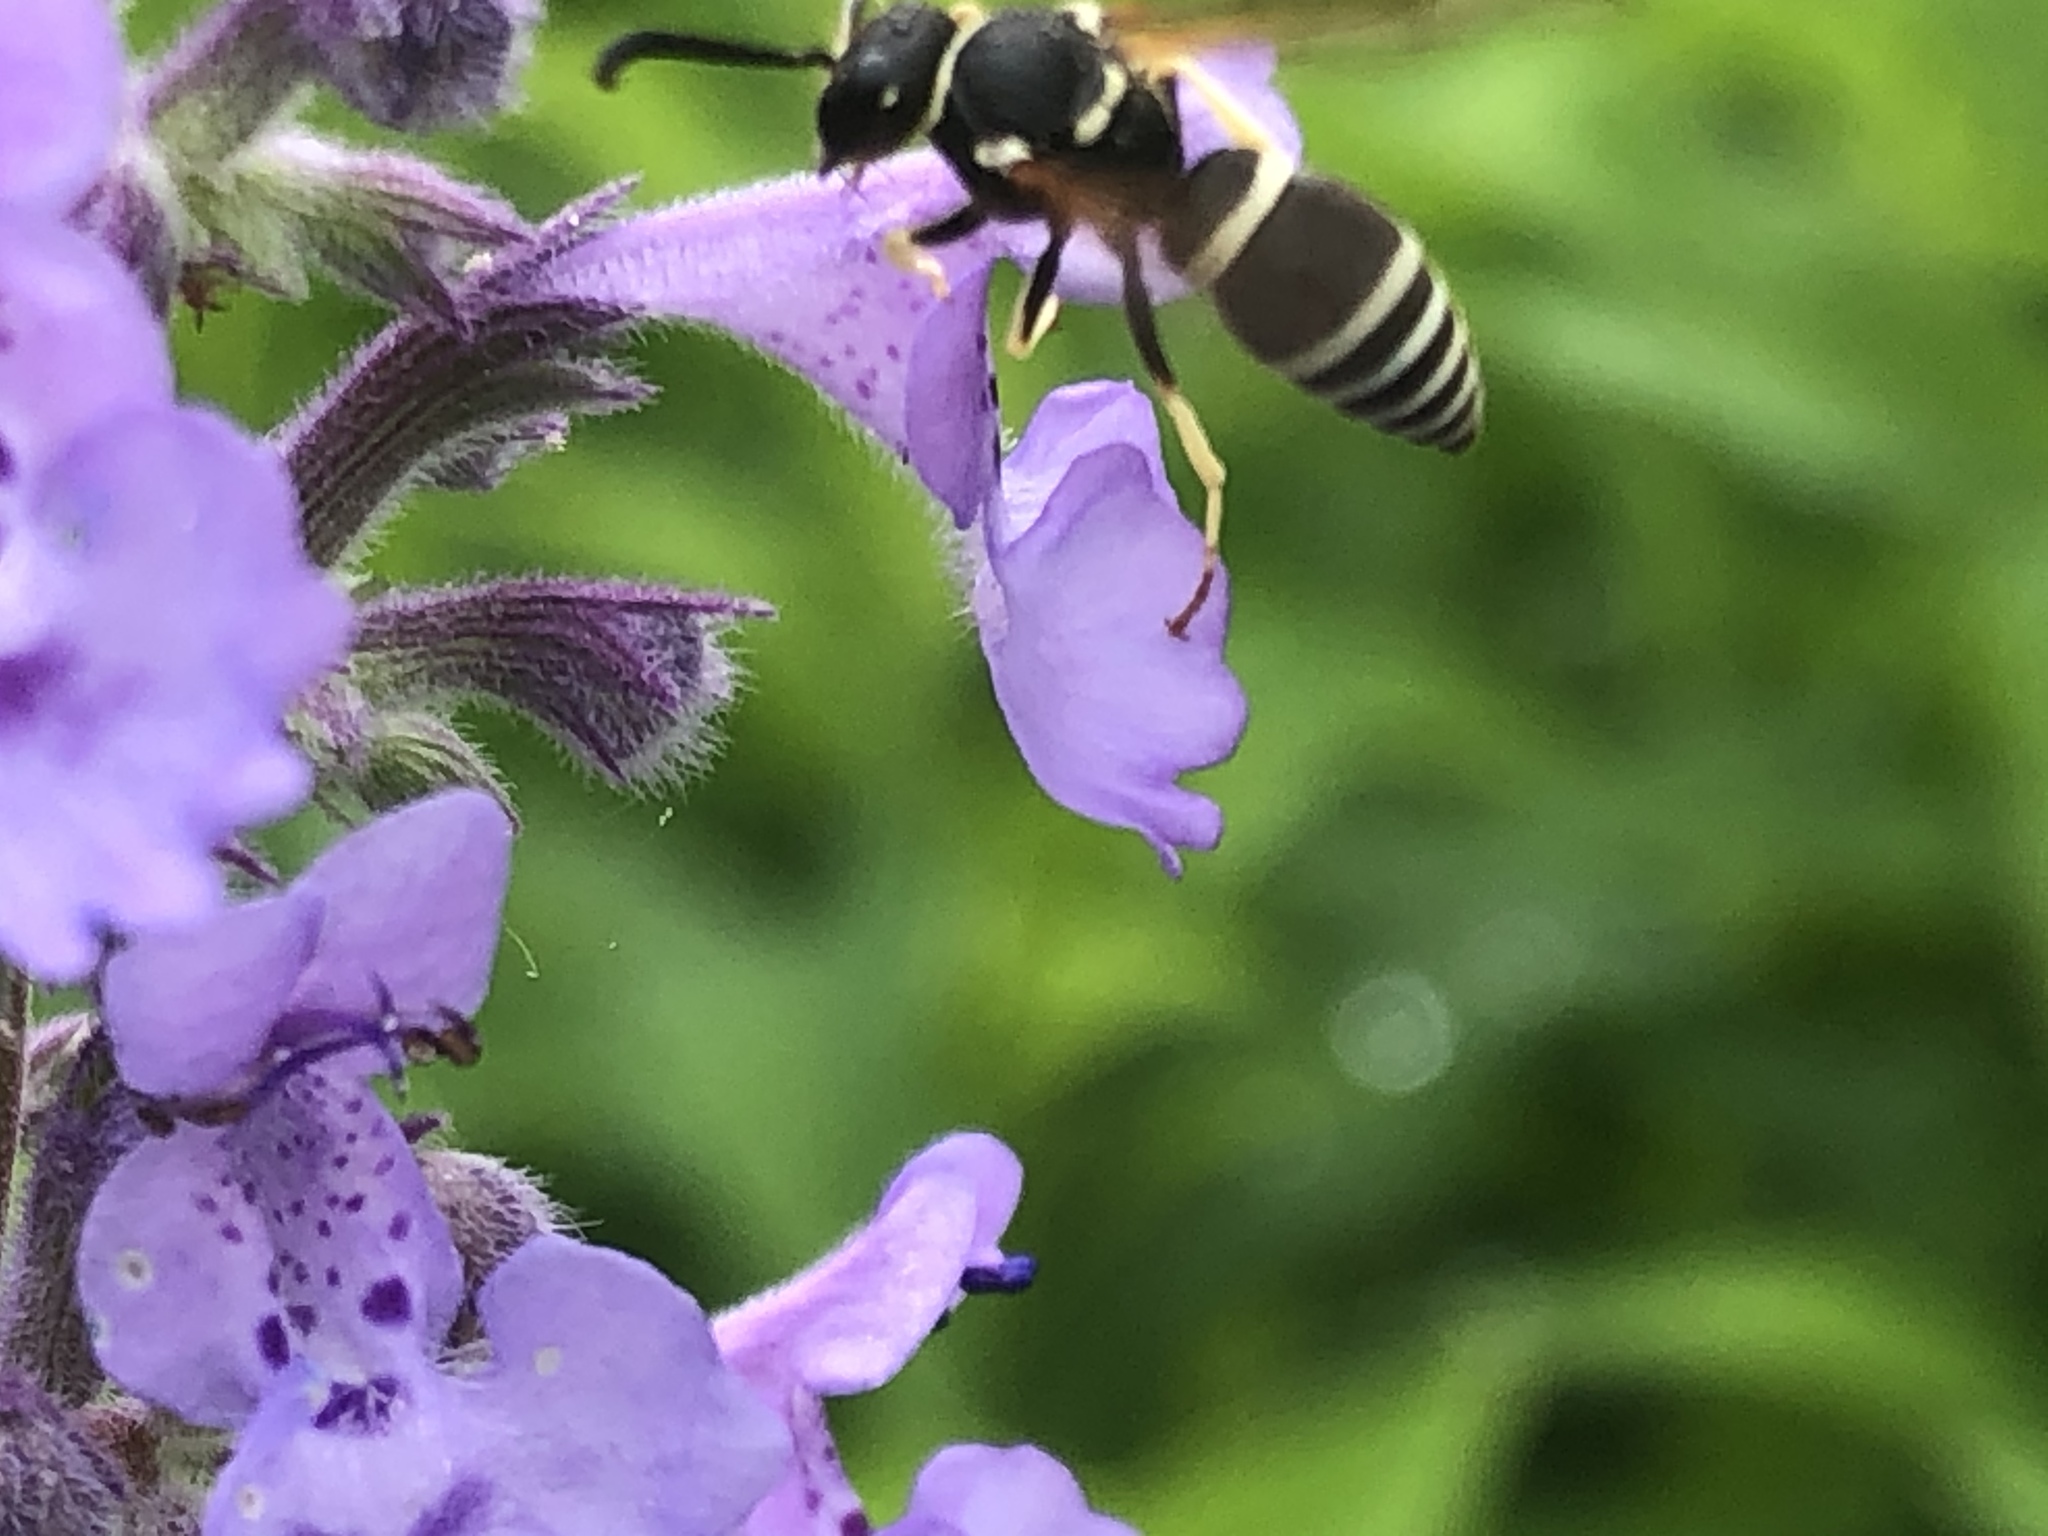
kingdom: Animalia
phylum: Arthropoda
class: Insecta
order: Hymenoptera
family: Vespidae
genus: Ancistrocerus
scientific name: Ancistrocerus waldenii
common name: Walden’s potter wasp
